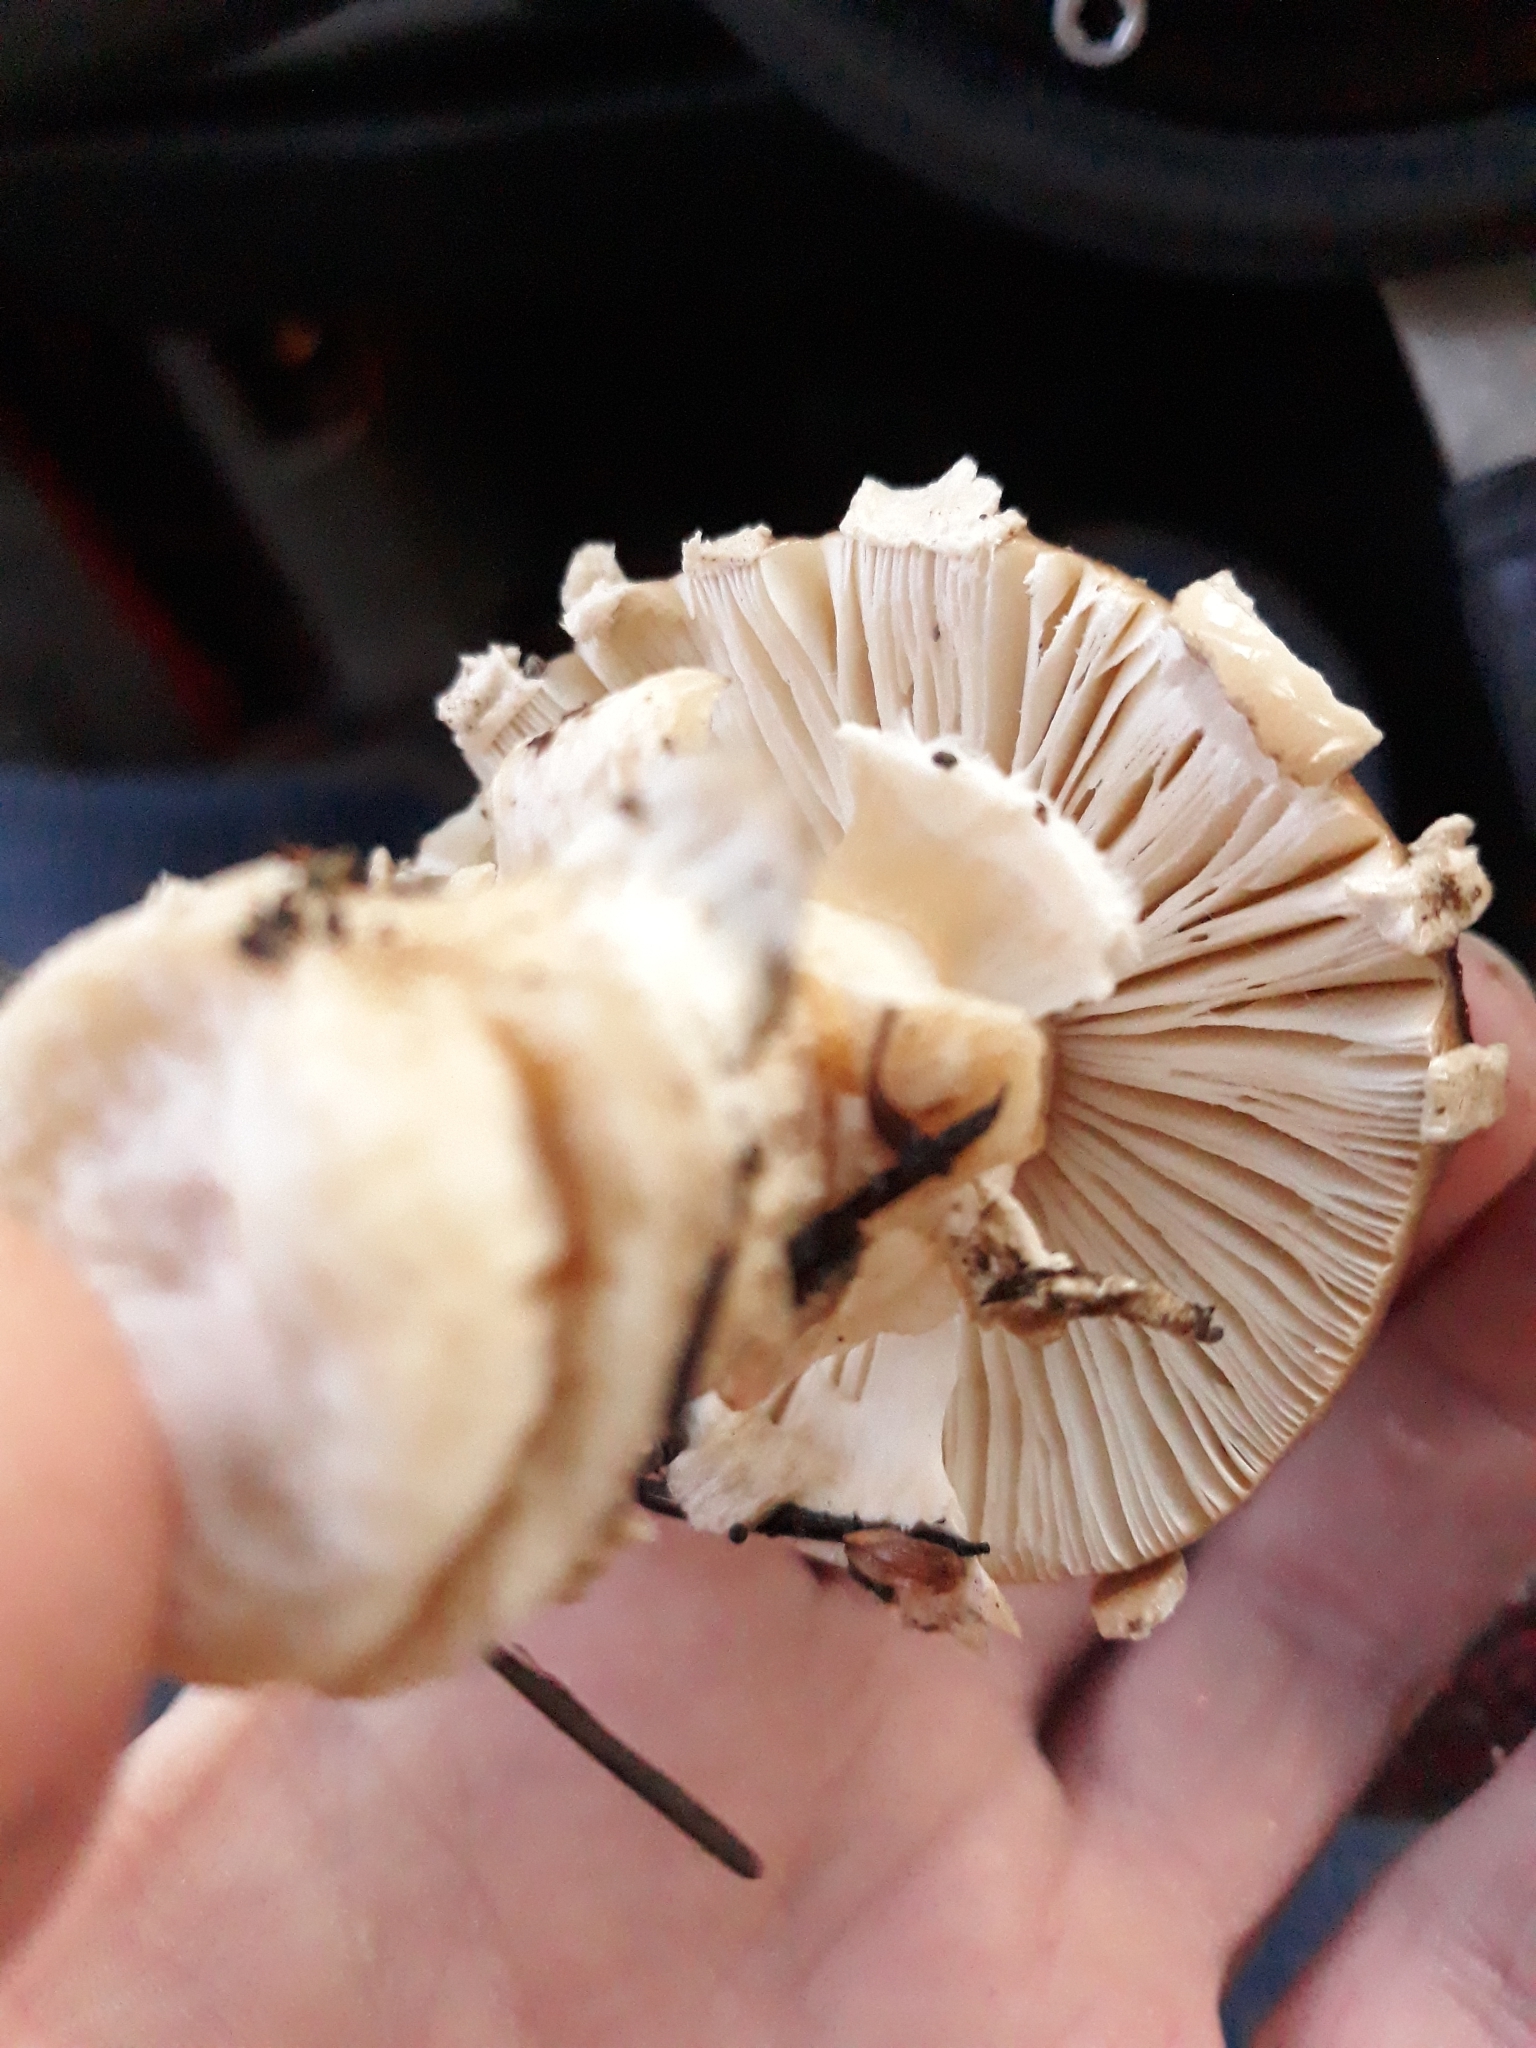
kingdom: Fungi
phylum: Basidiomycota
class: Agaricomycetes
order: Agaricales
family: Amanitaceae
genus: Amanita
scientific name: Amanita pantherinoides
